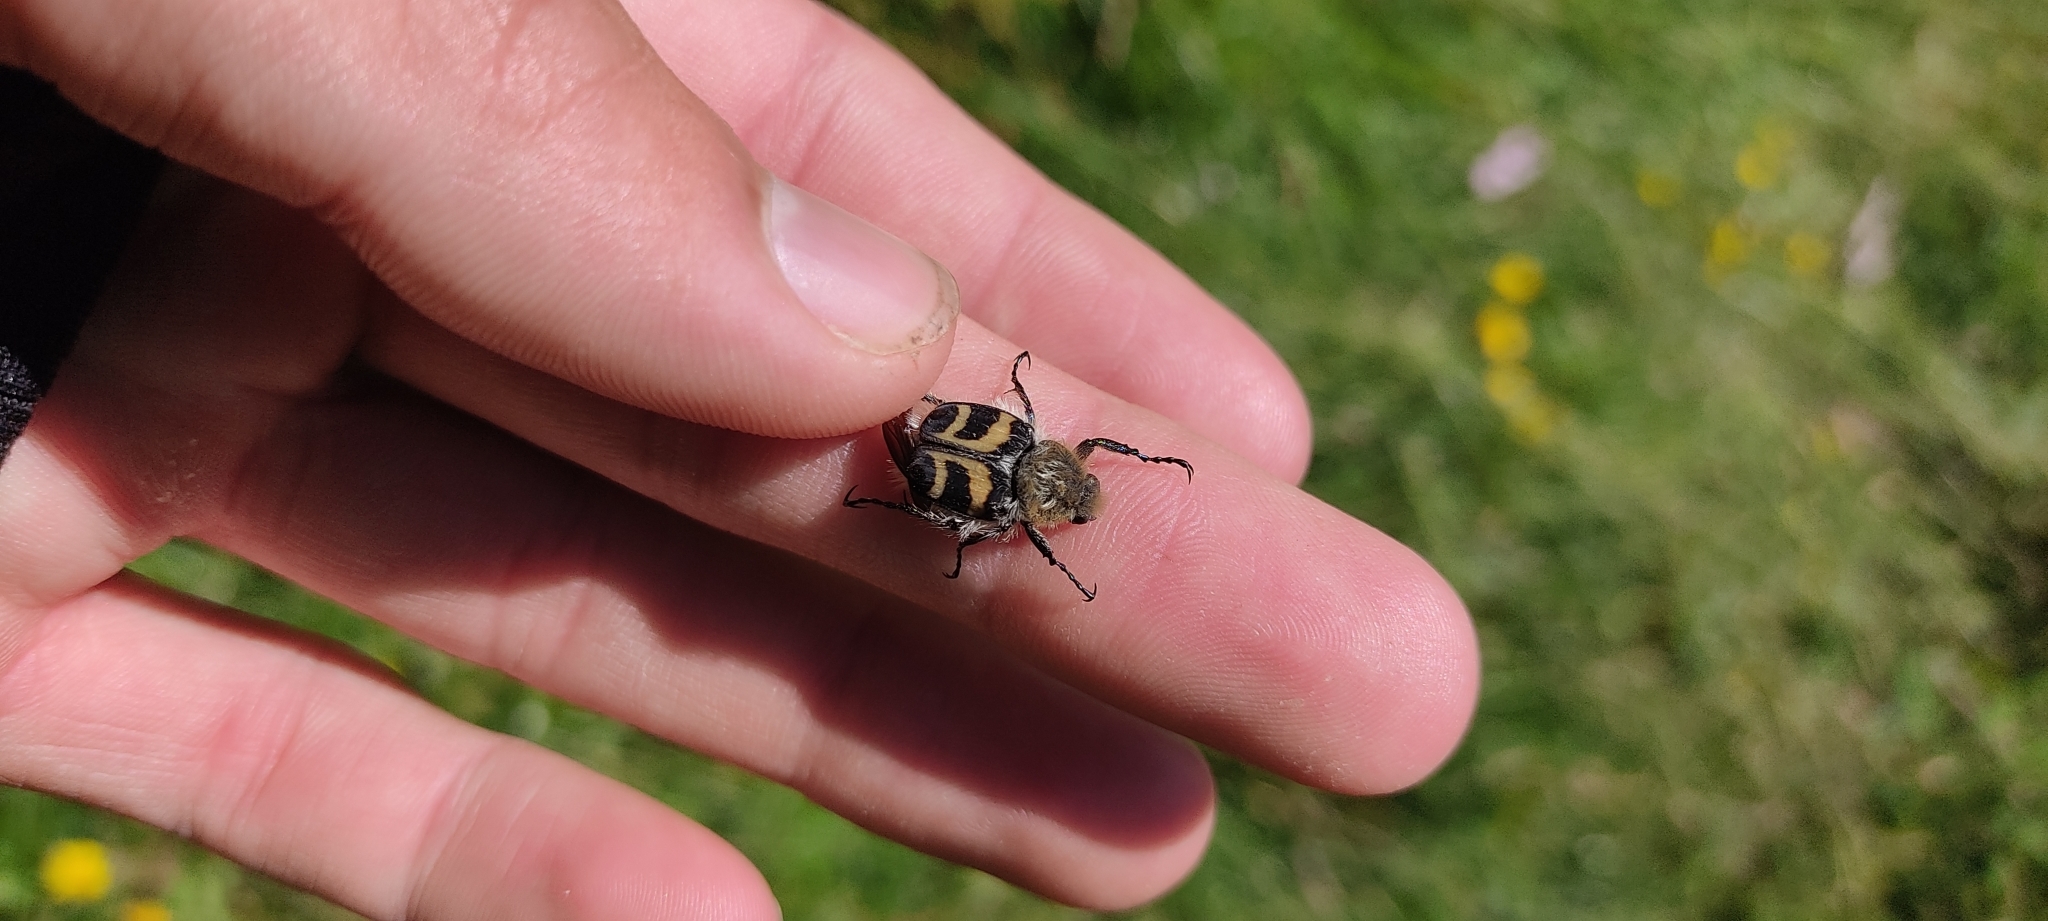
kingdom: Animalia
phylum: Arthropoda
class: Insecta
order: Coleoptera
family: Scarabaeidae
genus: Trichius
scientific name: Trichius fasciatus
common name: Bee beetle
